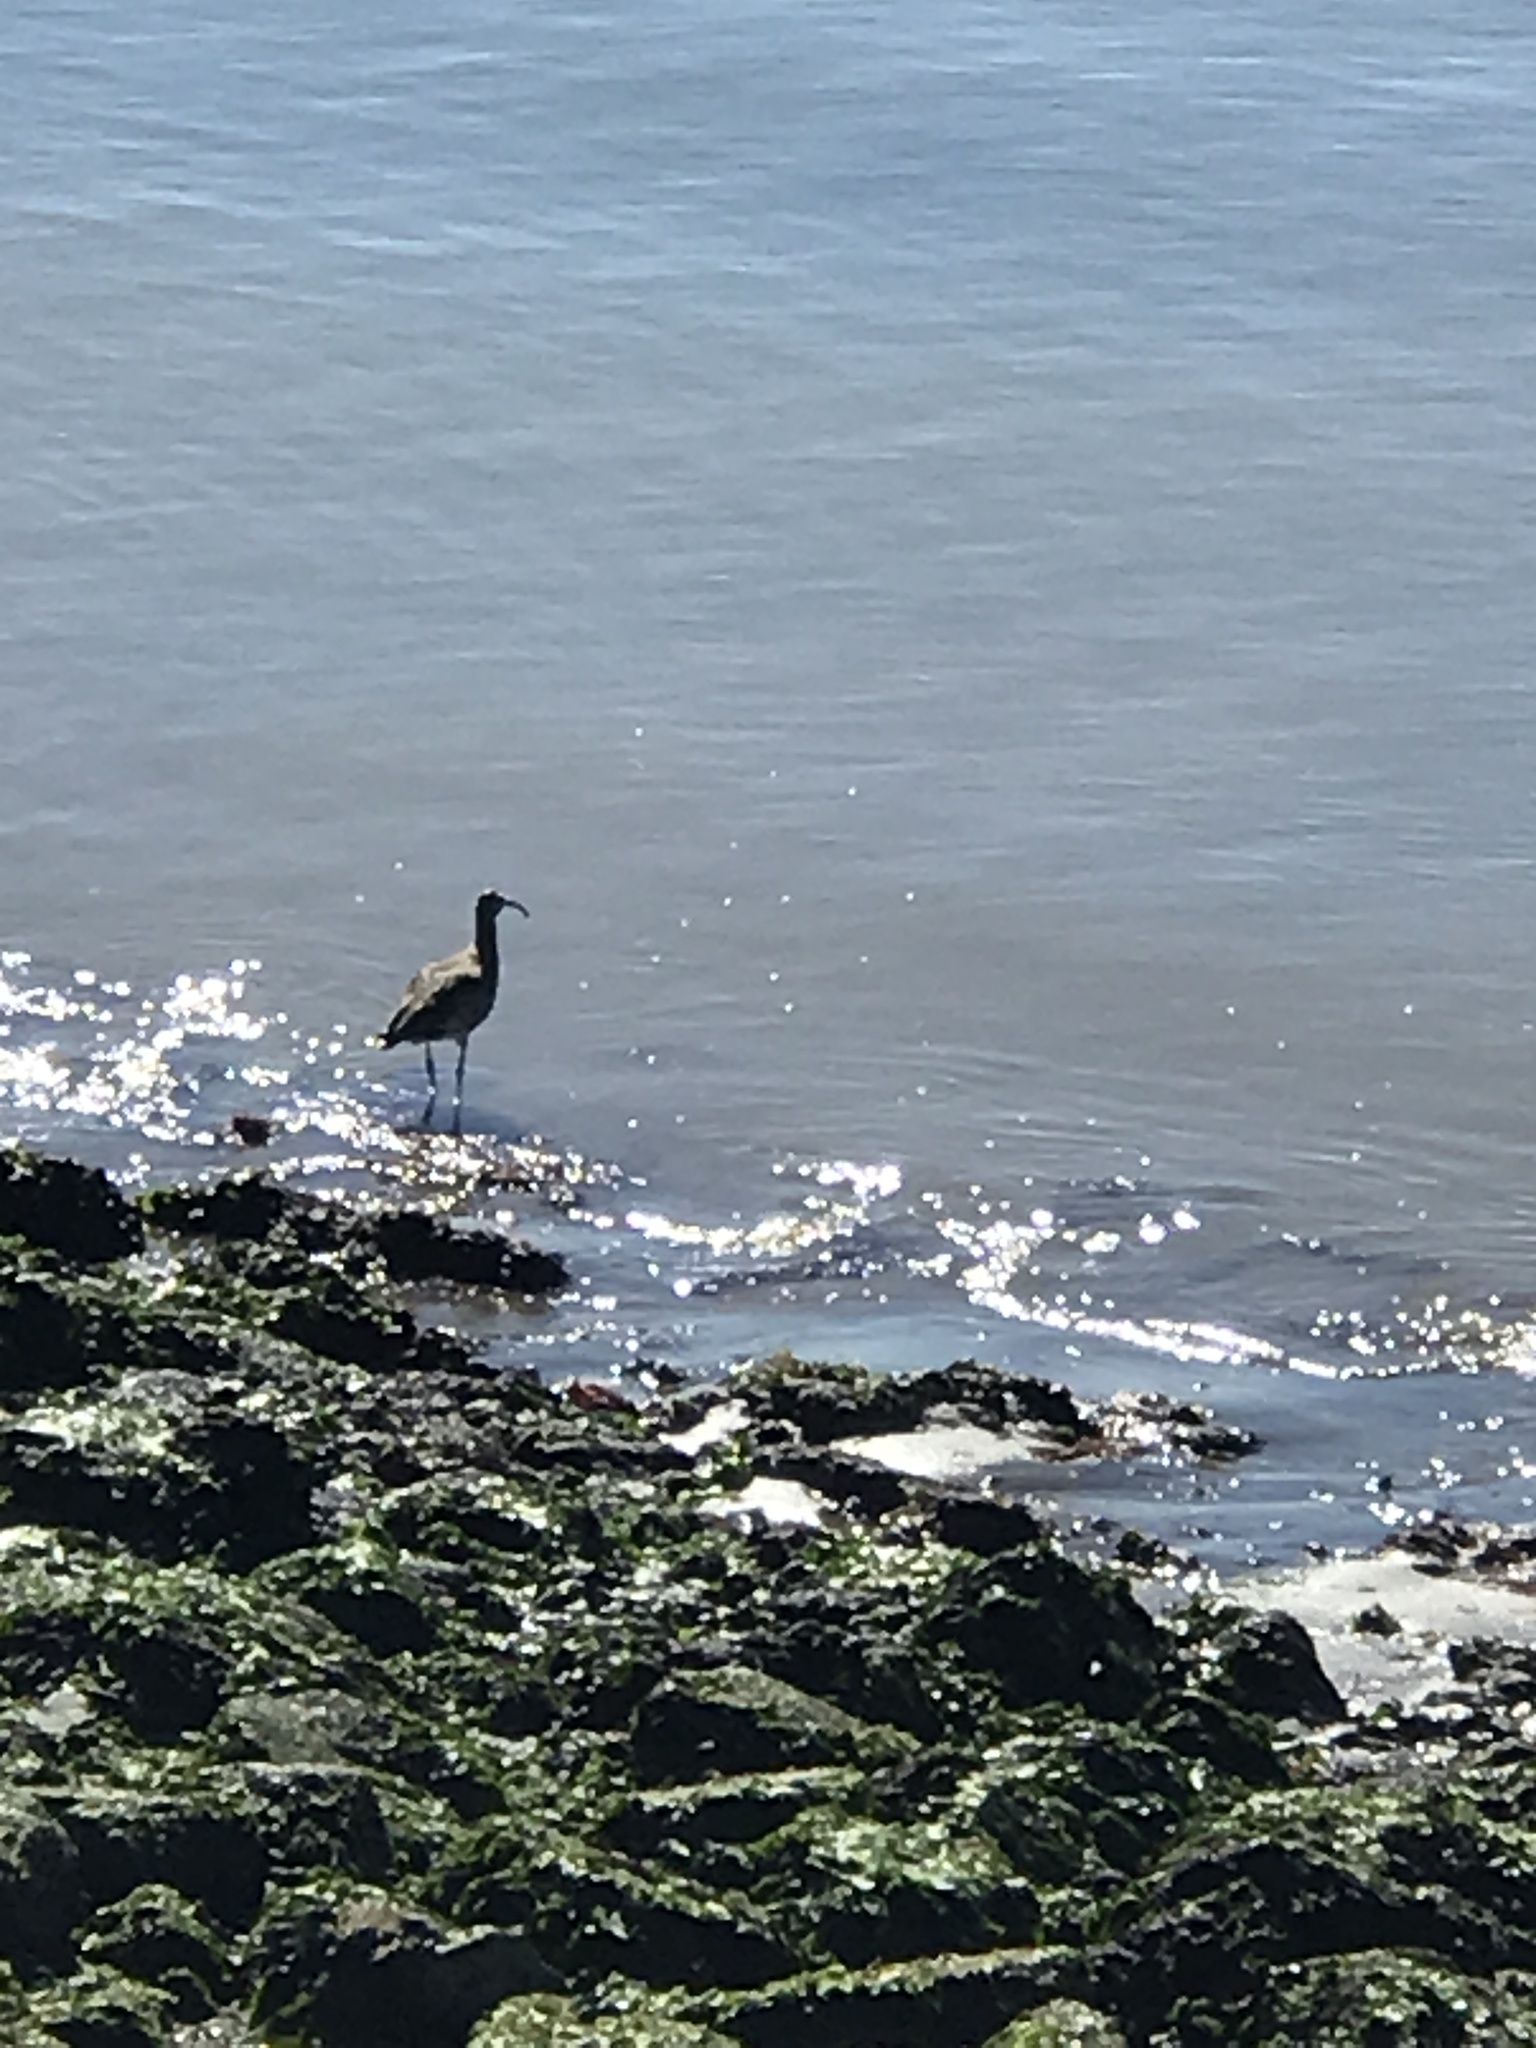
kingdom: Animalia
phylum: Chordata
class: Aves
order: Charadriiformes
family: Scolopacidae
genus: Numenius
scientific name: Numenius phaeopus
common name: Whimbrel
